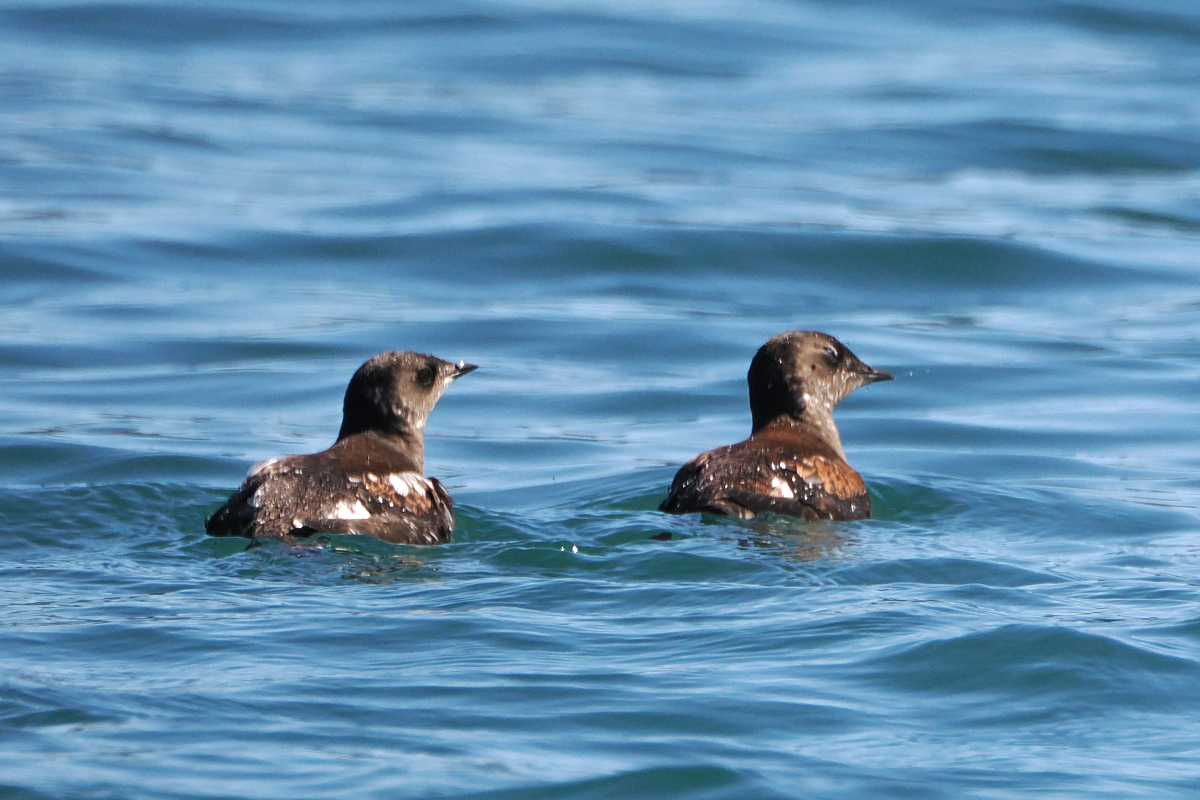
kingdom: Animalia
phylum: Chordata
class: Aves
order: Charadriiformes
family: Alcidae
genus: Brachyramphus
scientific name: Brachyramphus marmoratus
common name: Marbled murrelet
